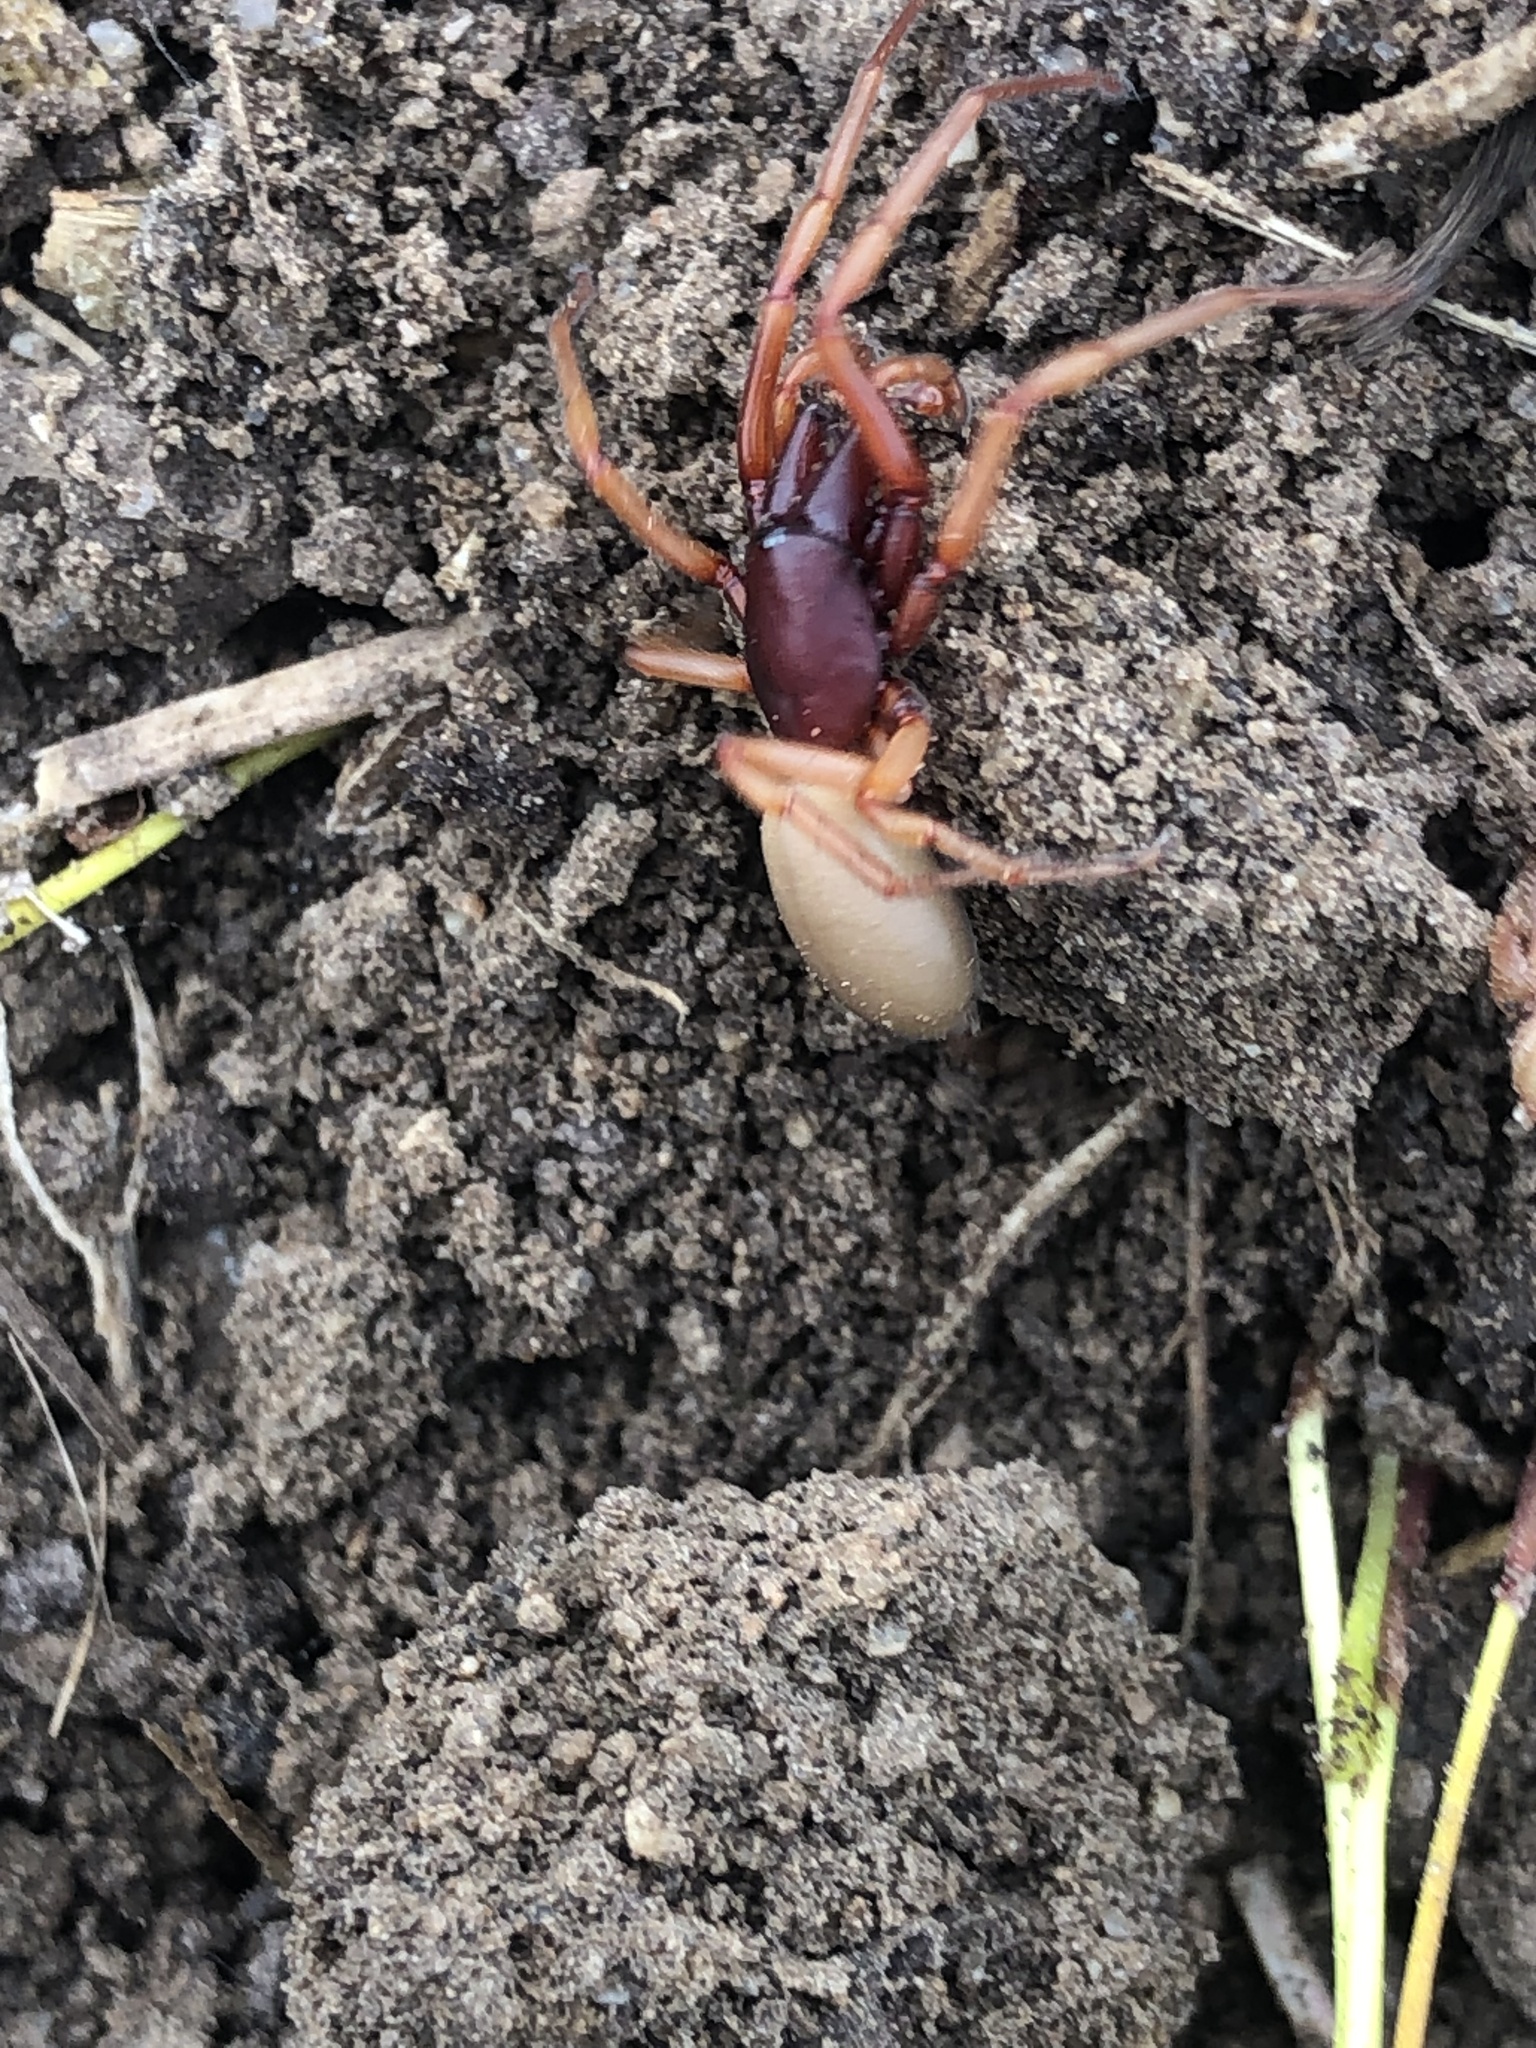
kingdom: Animalia
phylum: Arthropoda
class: Arachnida
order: Araneae
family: Dysderidae
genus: Dysdera
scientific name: Dysdera crocata
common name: Woodlouse spider
